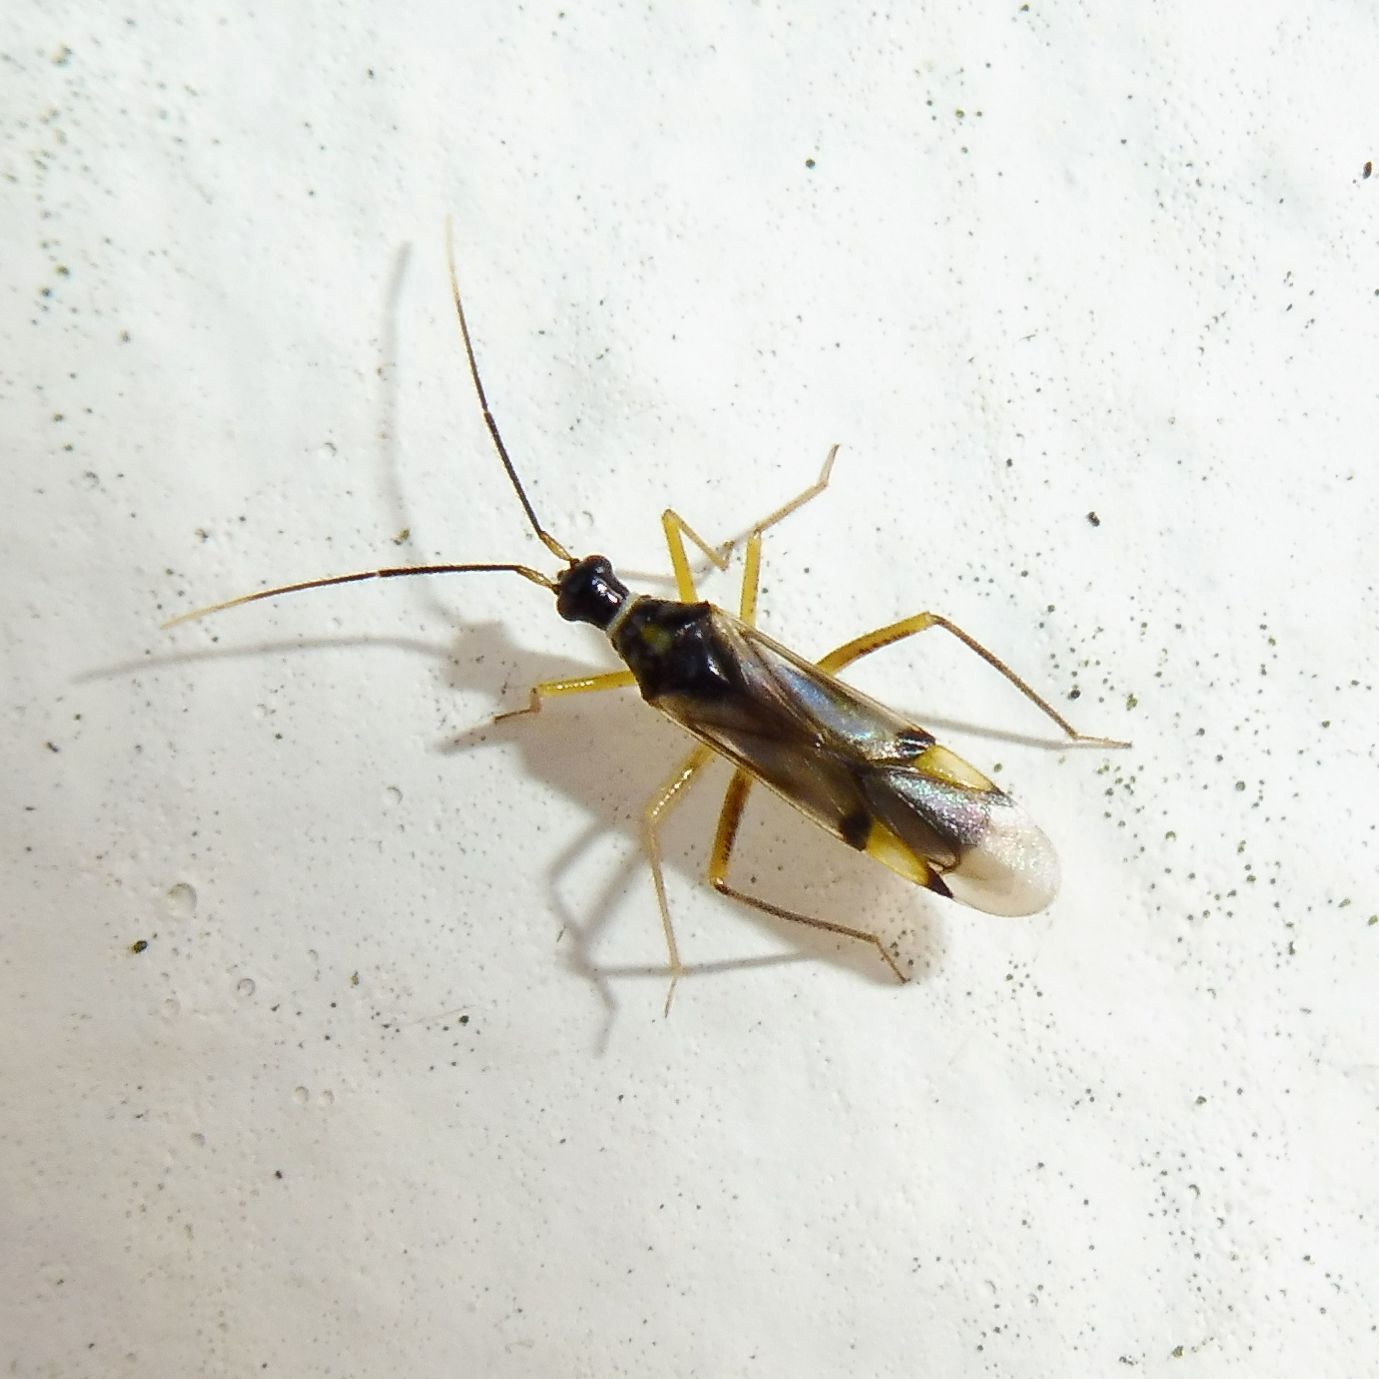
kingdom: Animalia
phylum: Arthropoda
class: Insecta
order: Hemiptera
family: Miridae
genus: Tupiocoris
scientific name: Tupiocoris rhododendri
